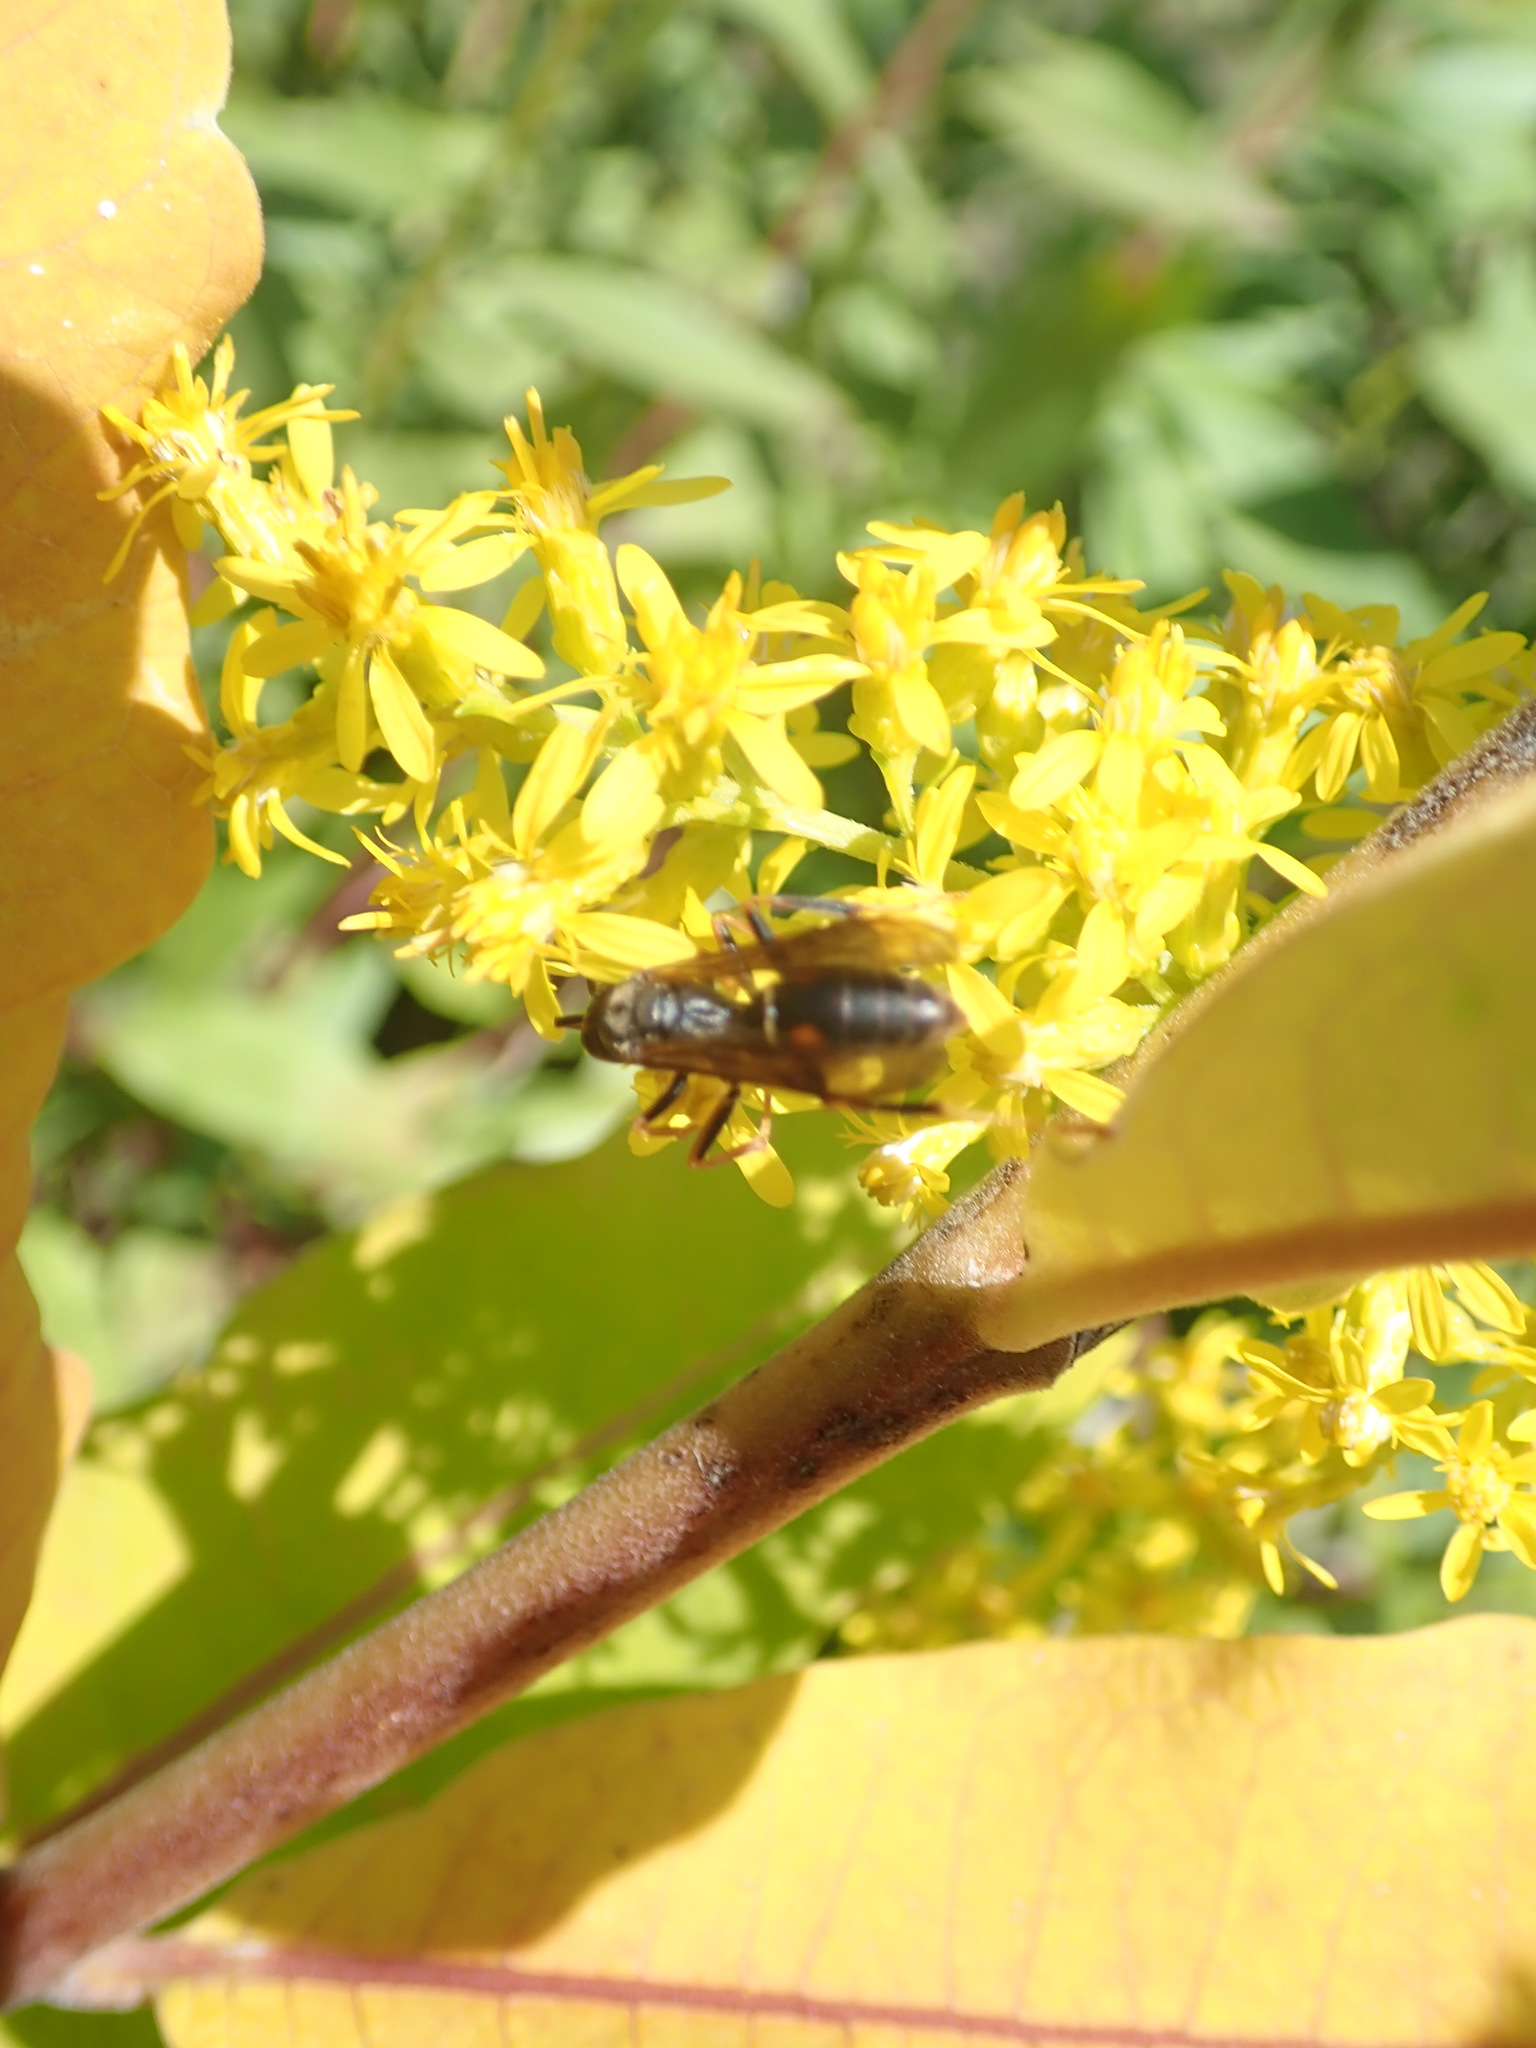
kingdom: Animalia
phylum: Arthropoda
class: Insecta
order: Hymenoptera
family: Eumenidae
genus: Polistes
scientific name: Polistes fuscatus
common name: Dark paper wasp
